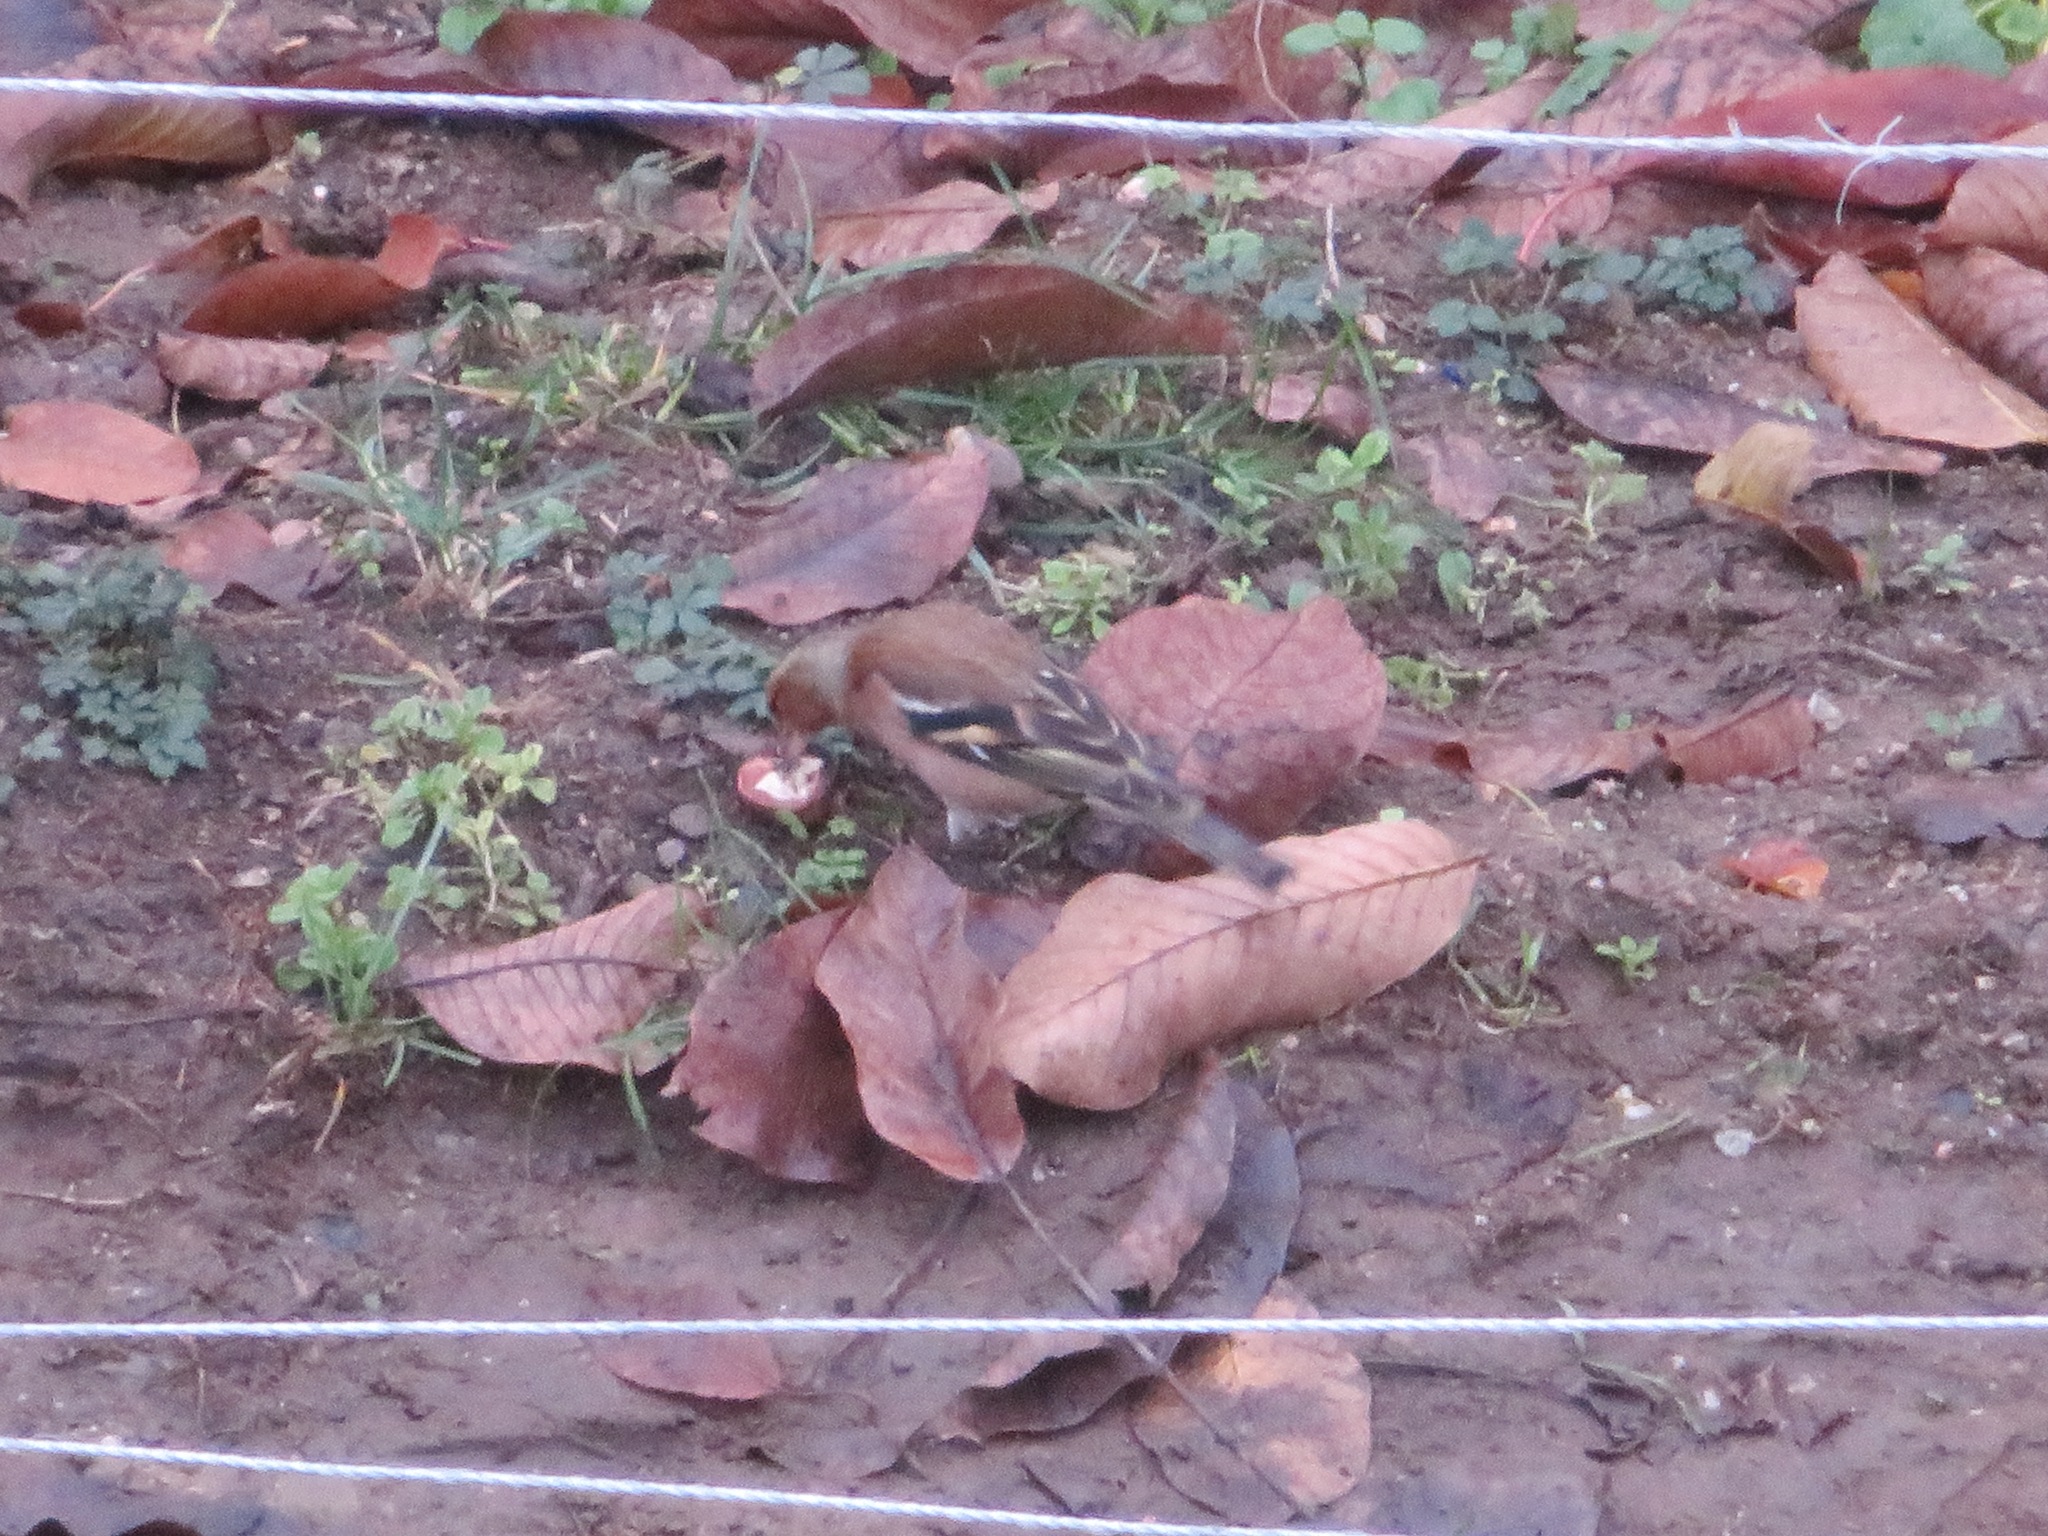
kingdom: Animalia
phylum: Chordata
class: Aves
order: Passeriformes
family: Fringillidae
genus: Fringilla
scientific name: Fringilla coelebs
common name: Common chaffinch
